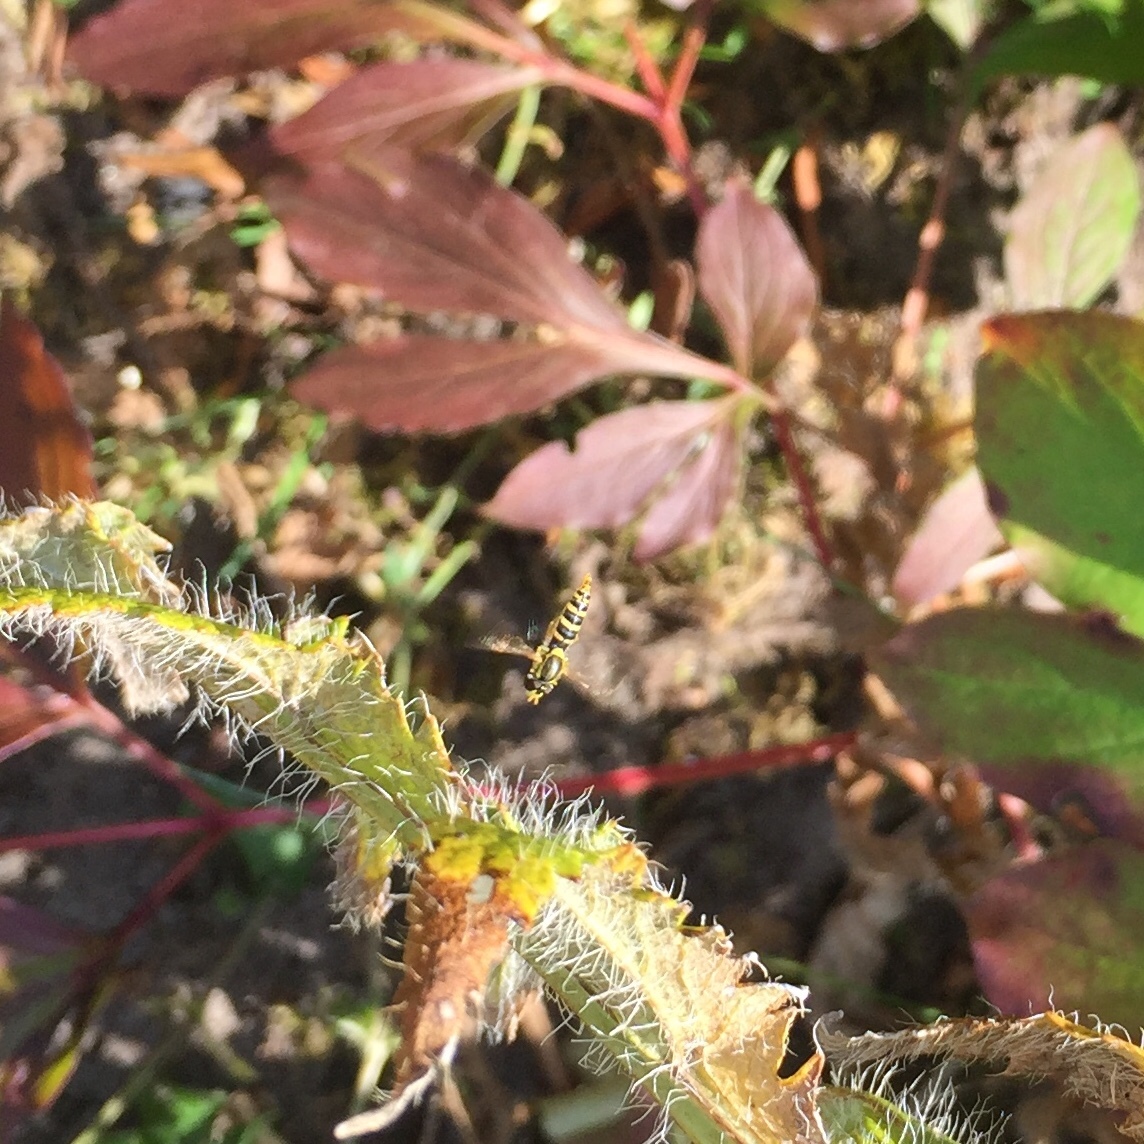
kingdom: Animalia
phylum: Arthropoda
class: Insecta
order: Diptera
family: Syrphidae
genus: Sphaerophoria
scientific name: Sphaerophoria
